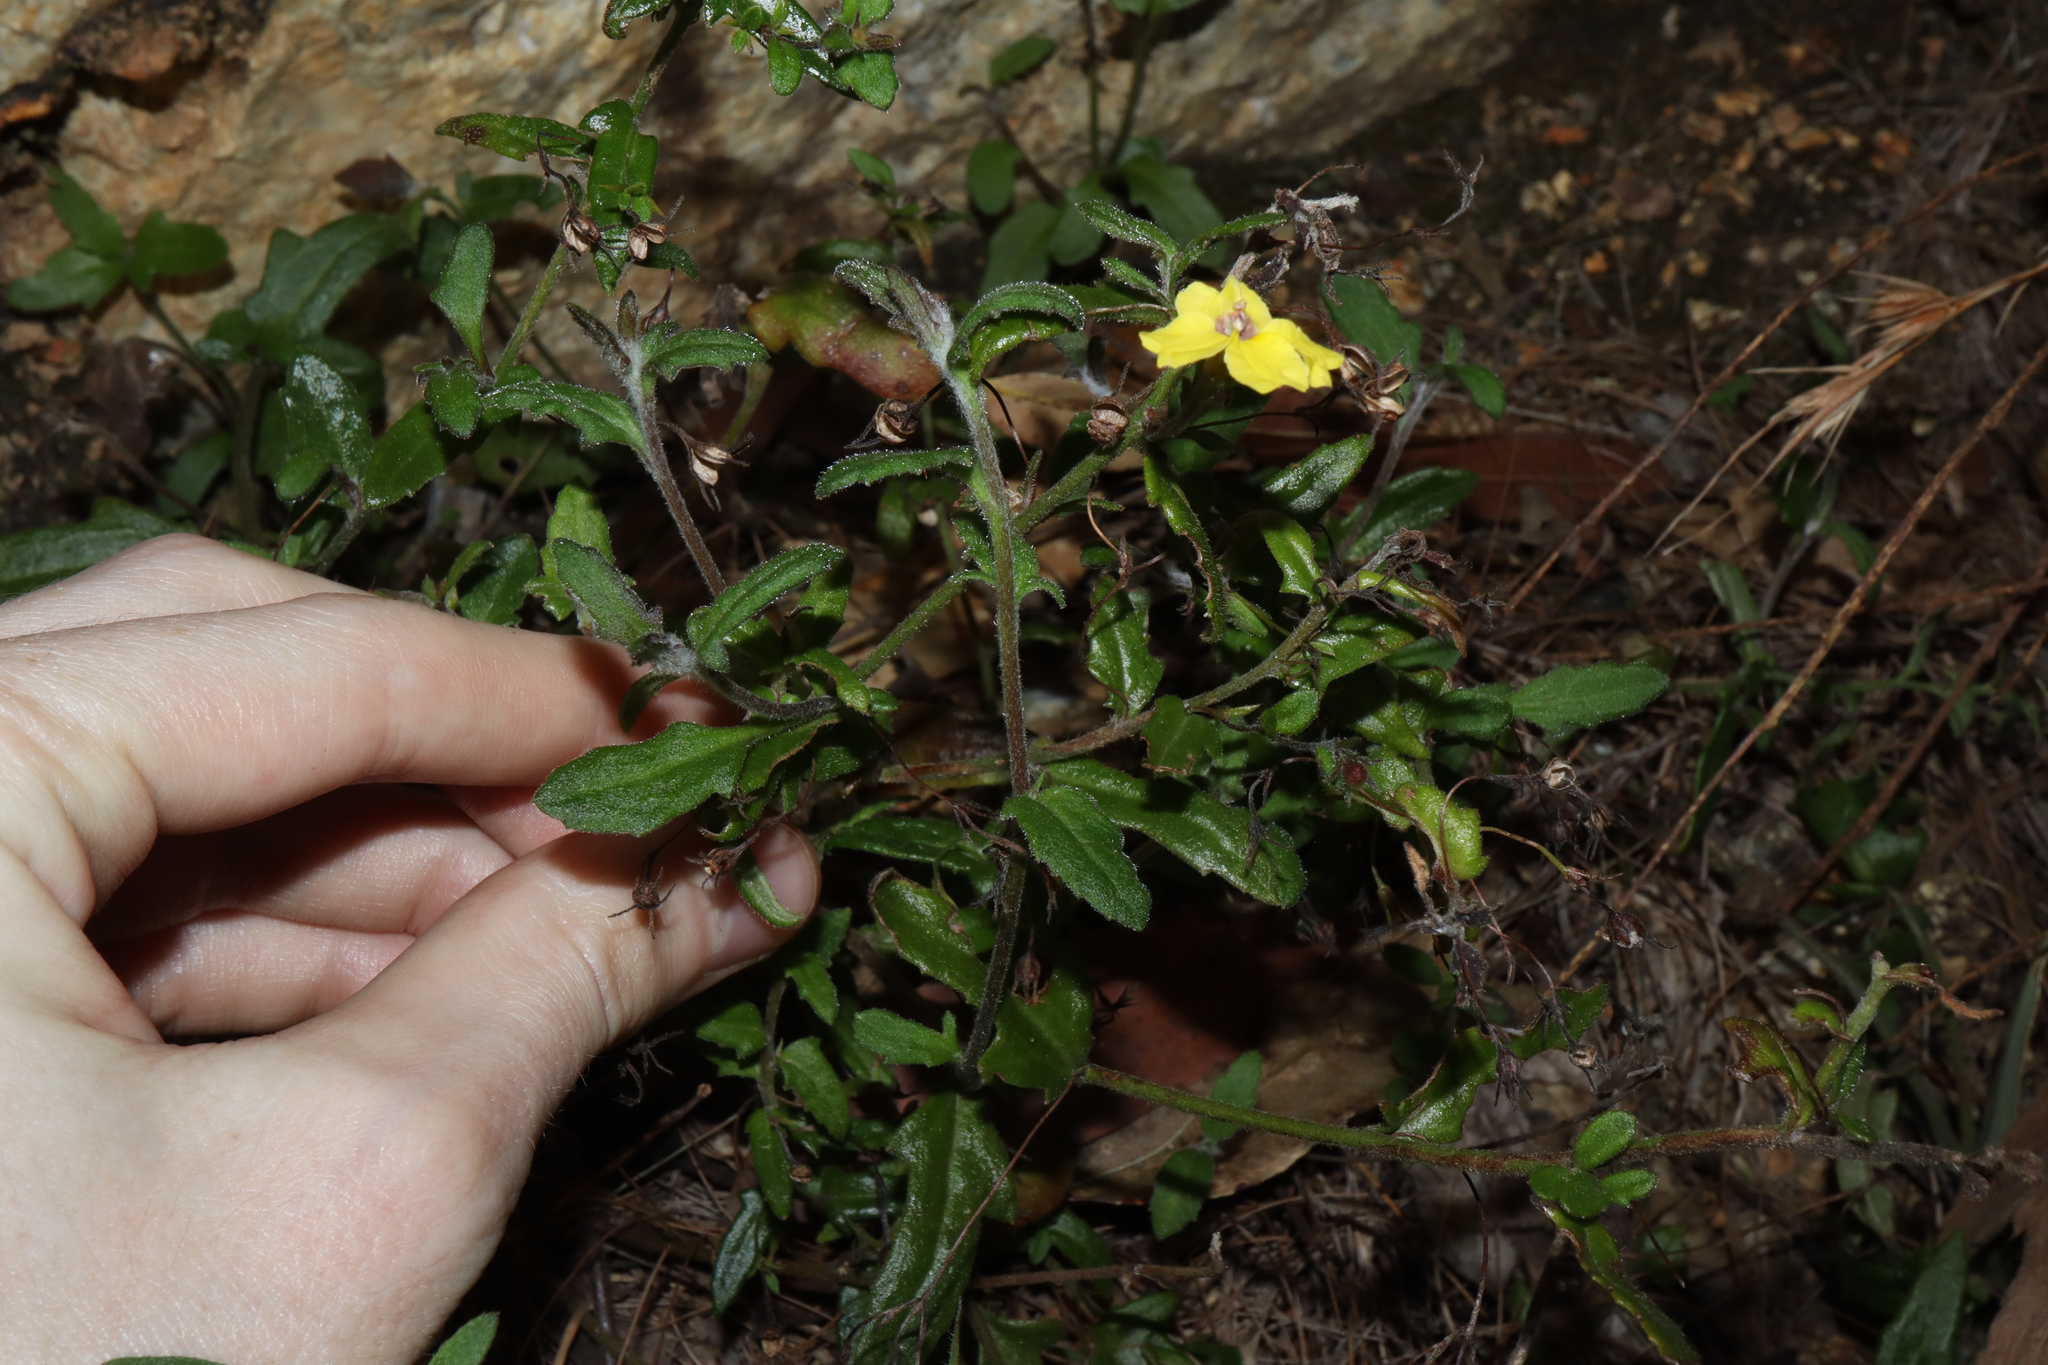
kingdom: Plantae
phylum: Tracheophyta
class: Magnoliopsida
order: Asterales
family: Goodeniaceae
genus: Goodenia
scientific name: Goodenia heterophylla
